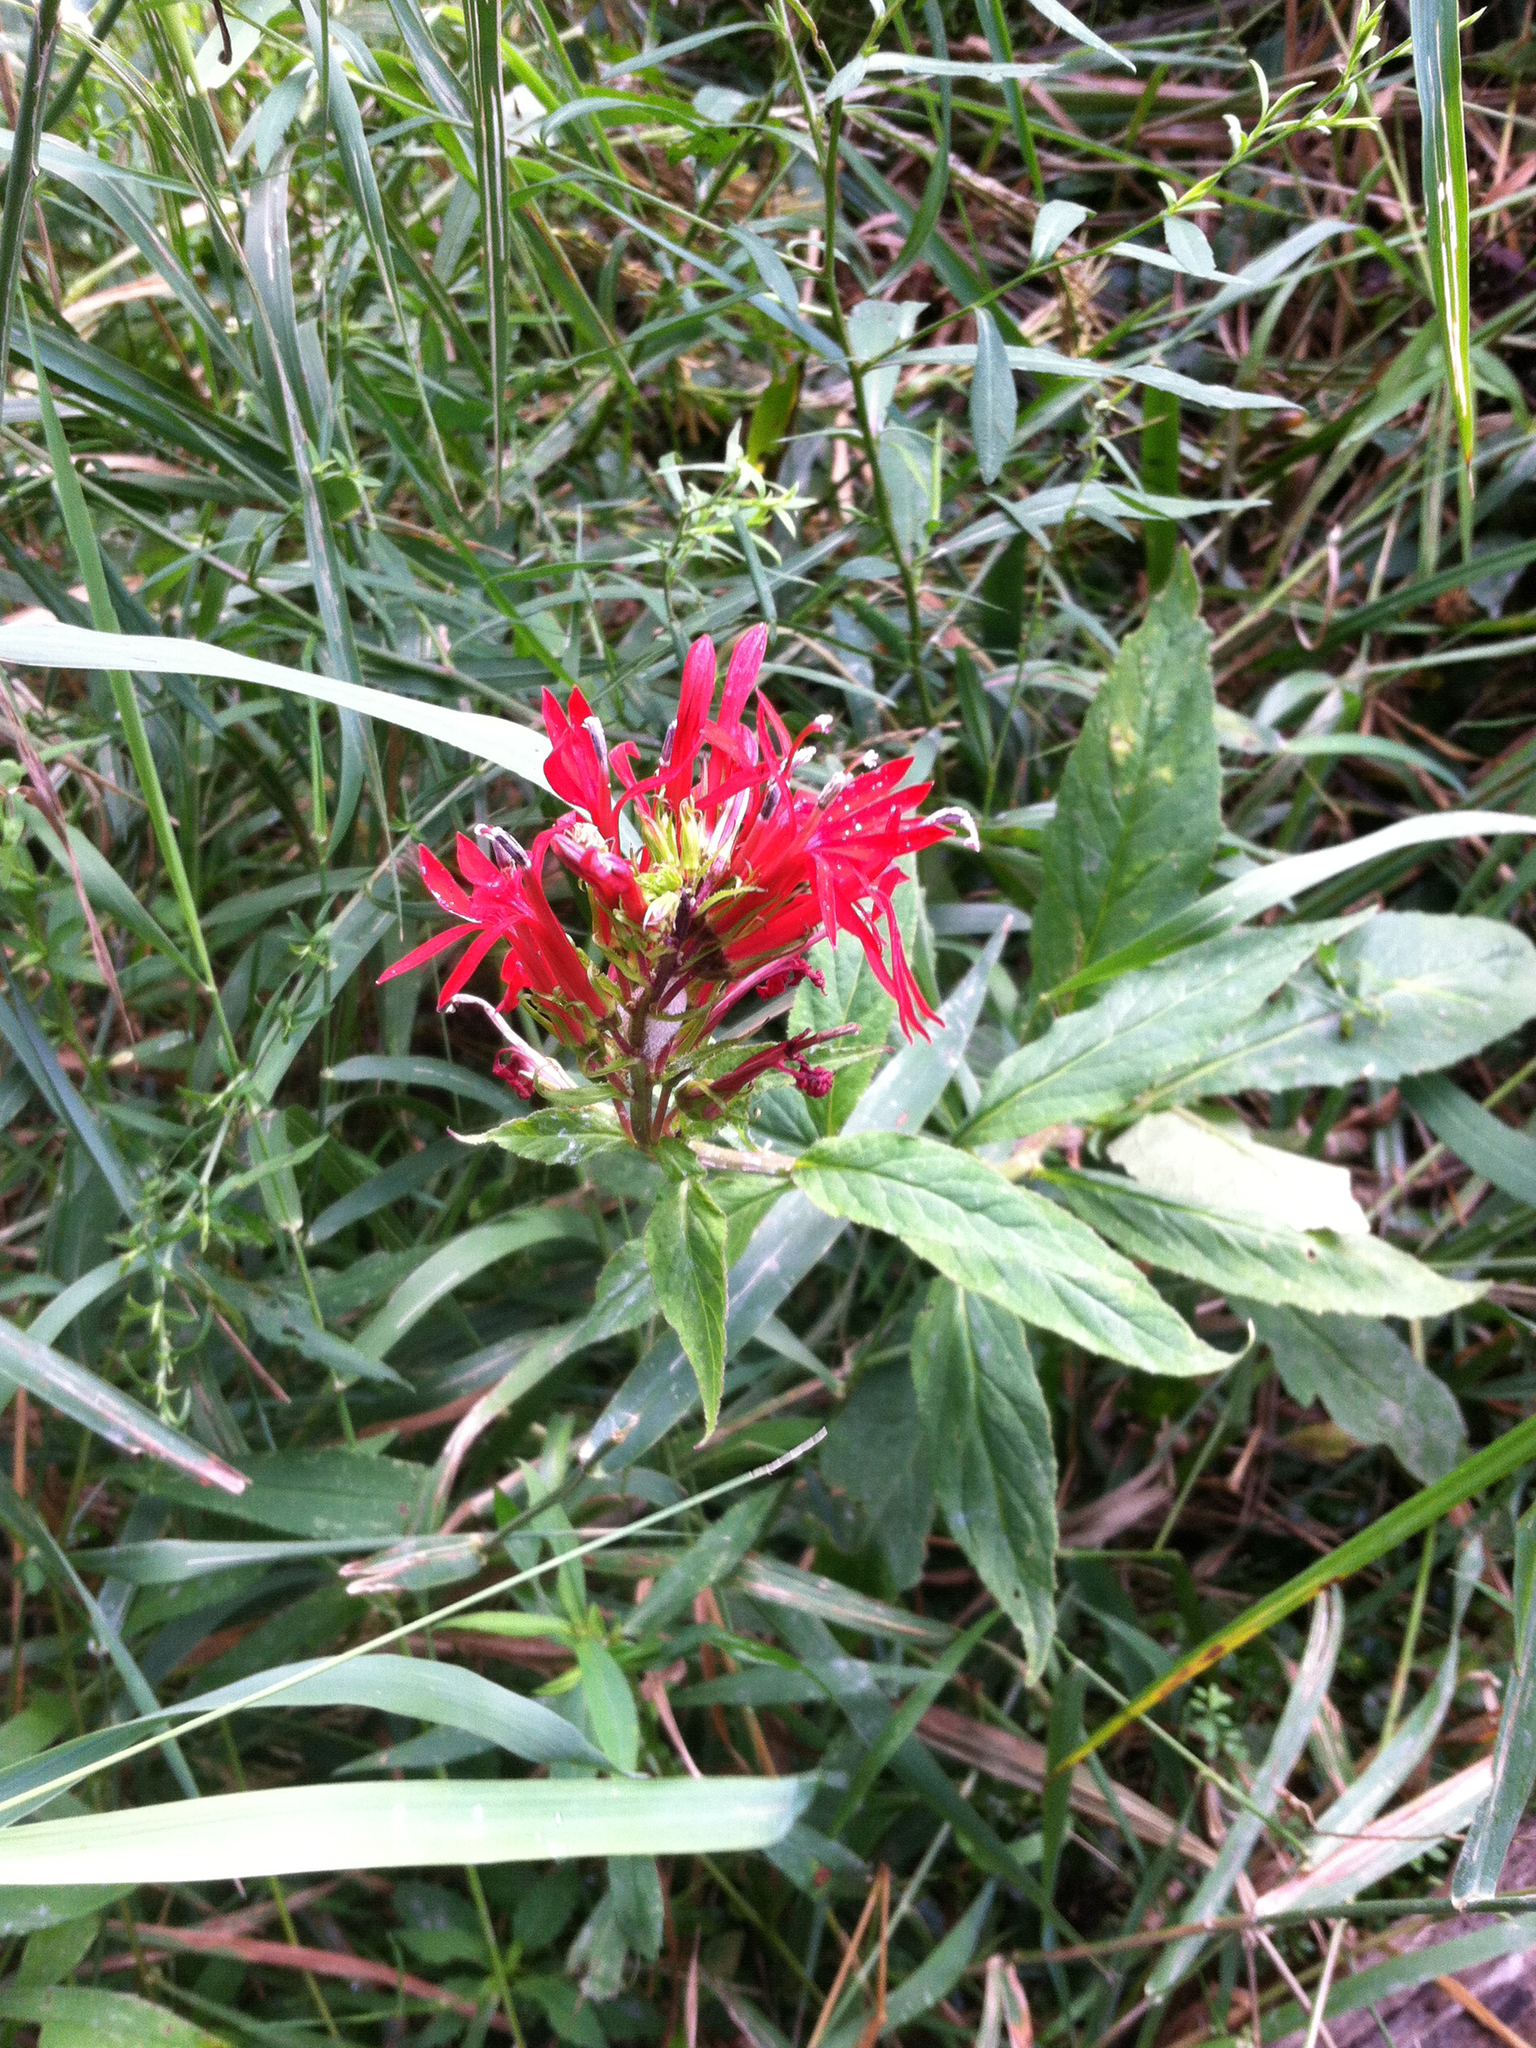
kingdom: Plantae
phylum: Tracheophyta
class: Magnoliopsida
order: Asterales
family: Campanulaceae
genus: Lobelia
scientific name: Lobelia cardinalis
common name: Cardinal flower
